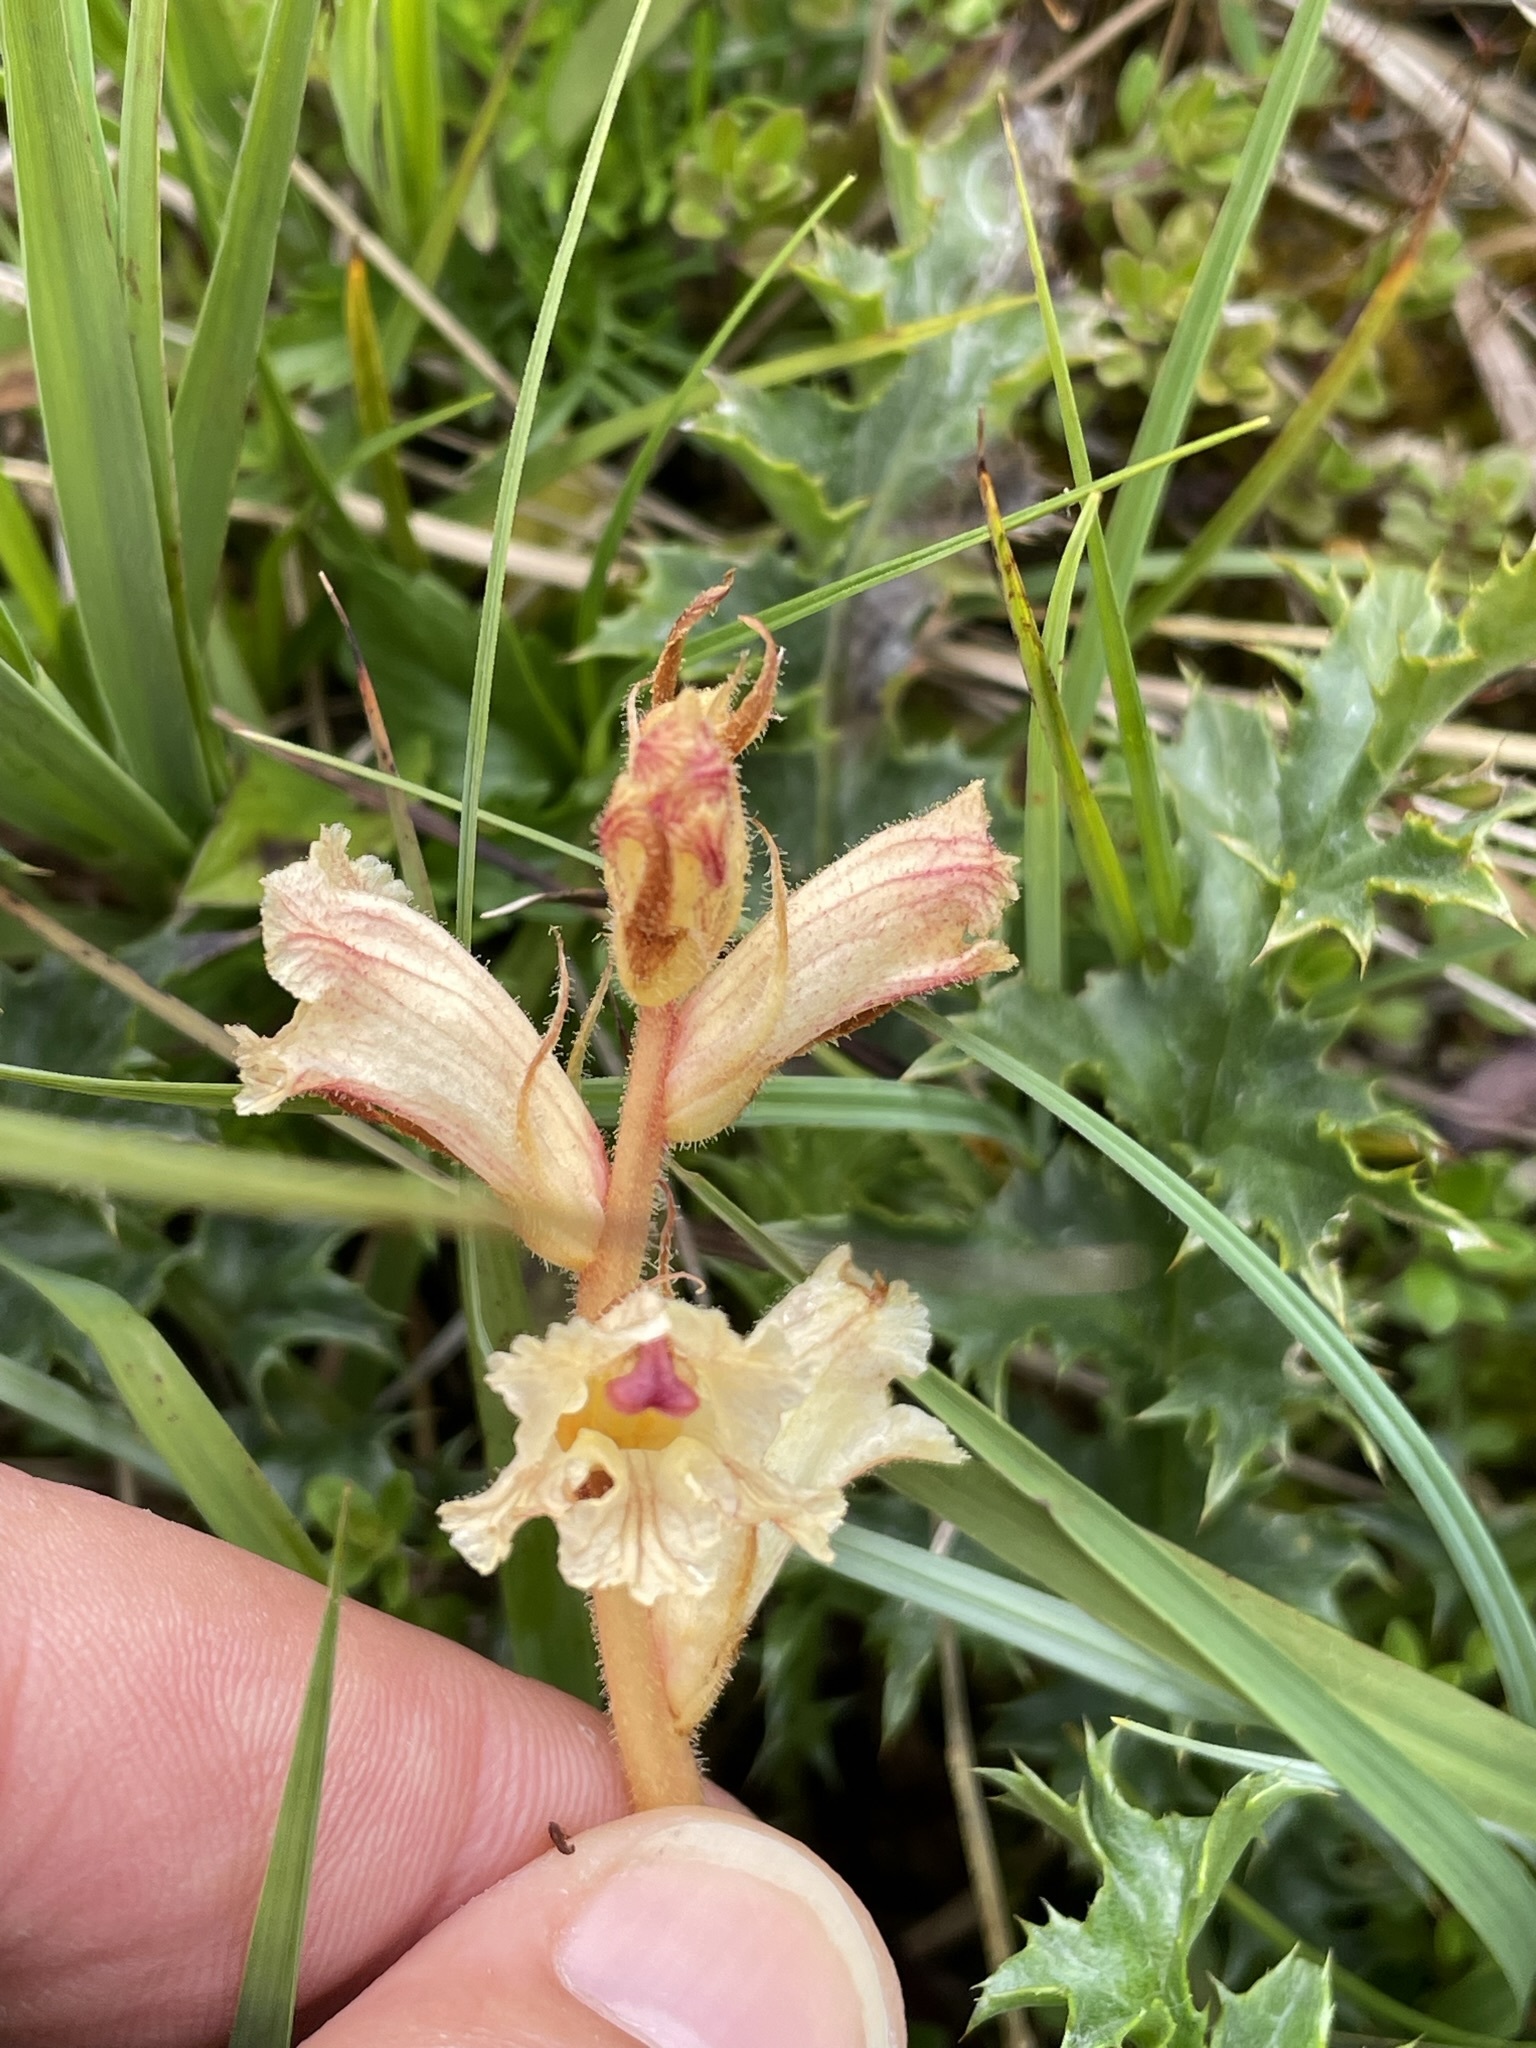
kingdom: Plantae
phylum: Tracheophyta
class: Magnoliopsida
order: Lamiales
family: Orobanchaceae
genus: Orobanche
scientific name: Orobanche alba
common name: Thyme broomrape
